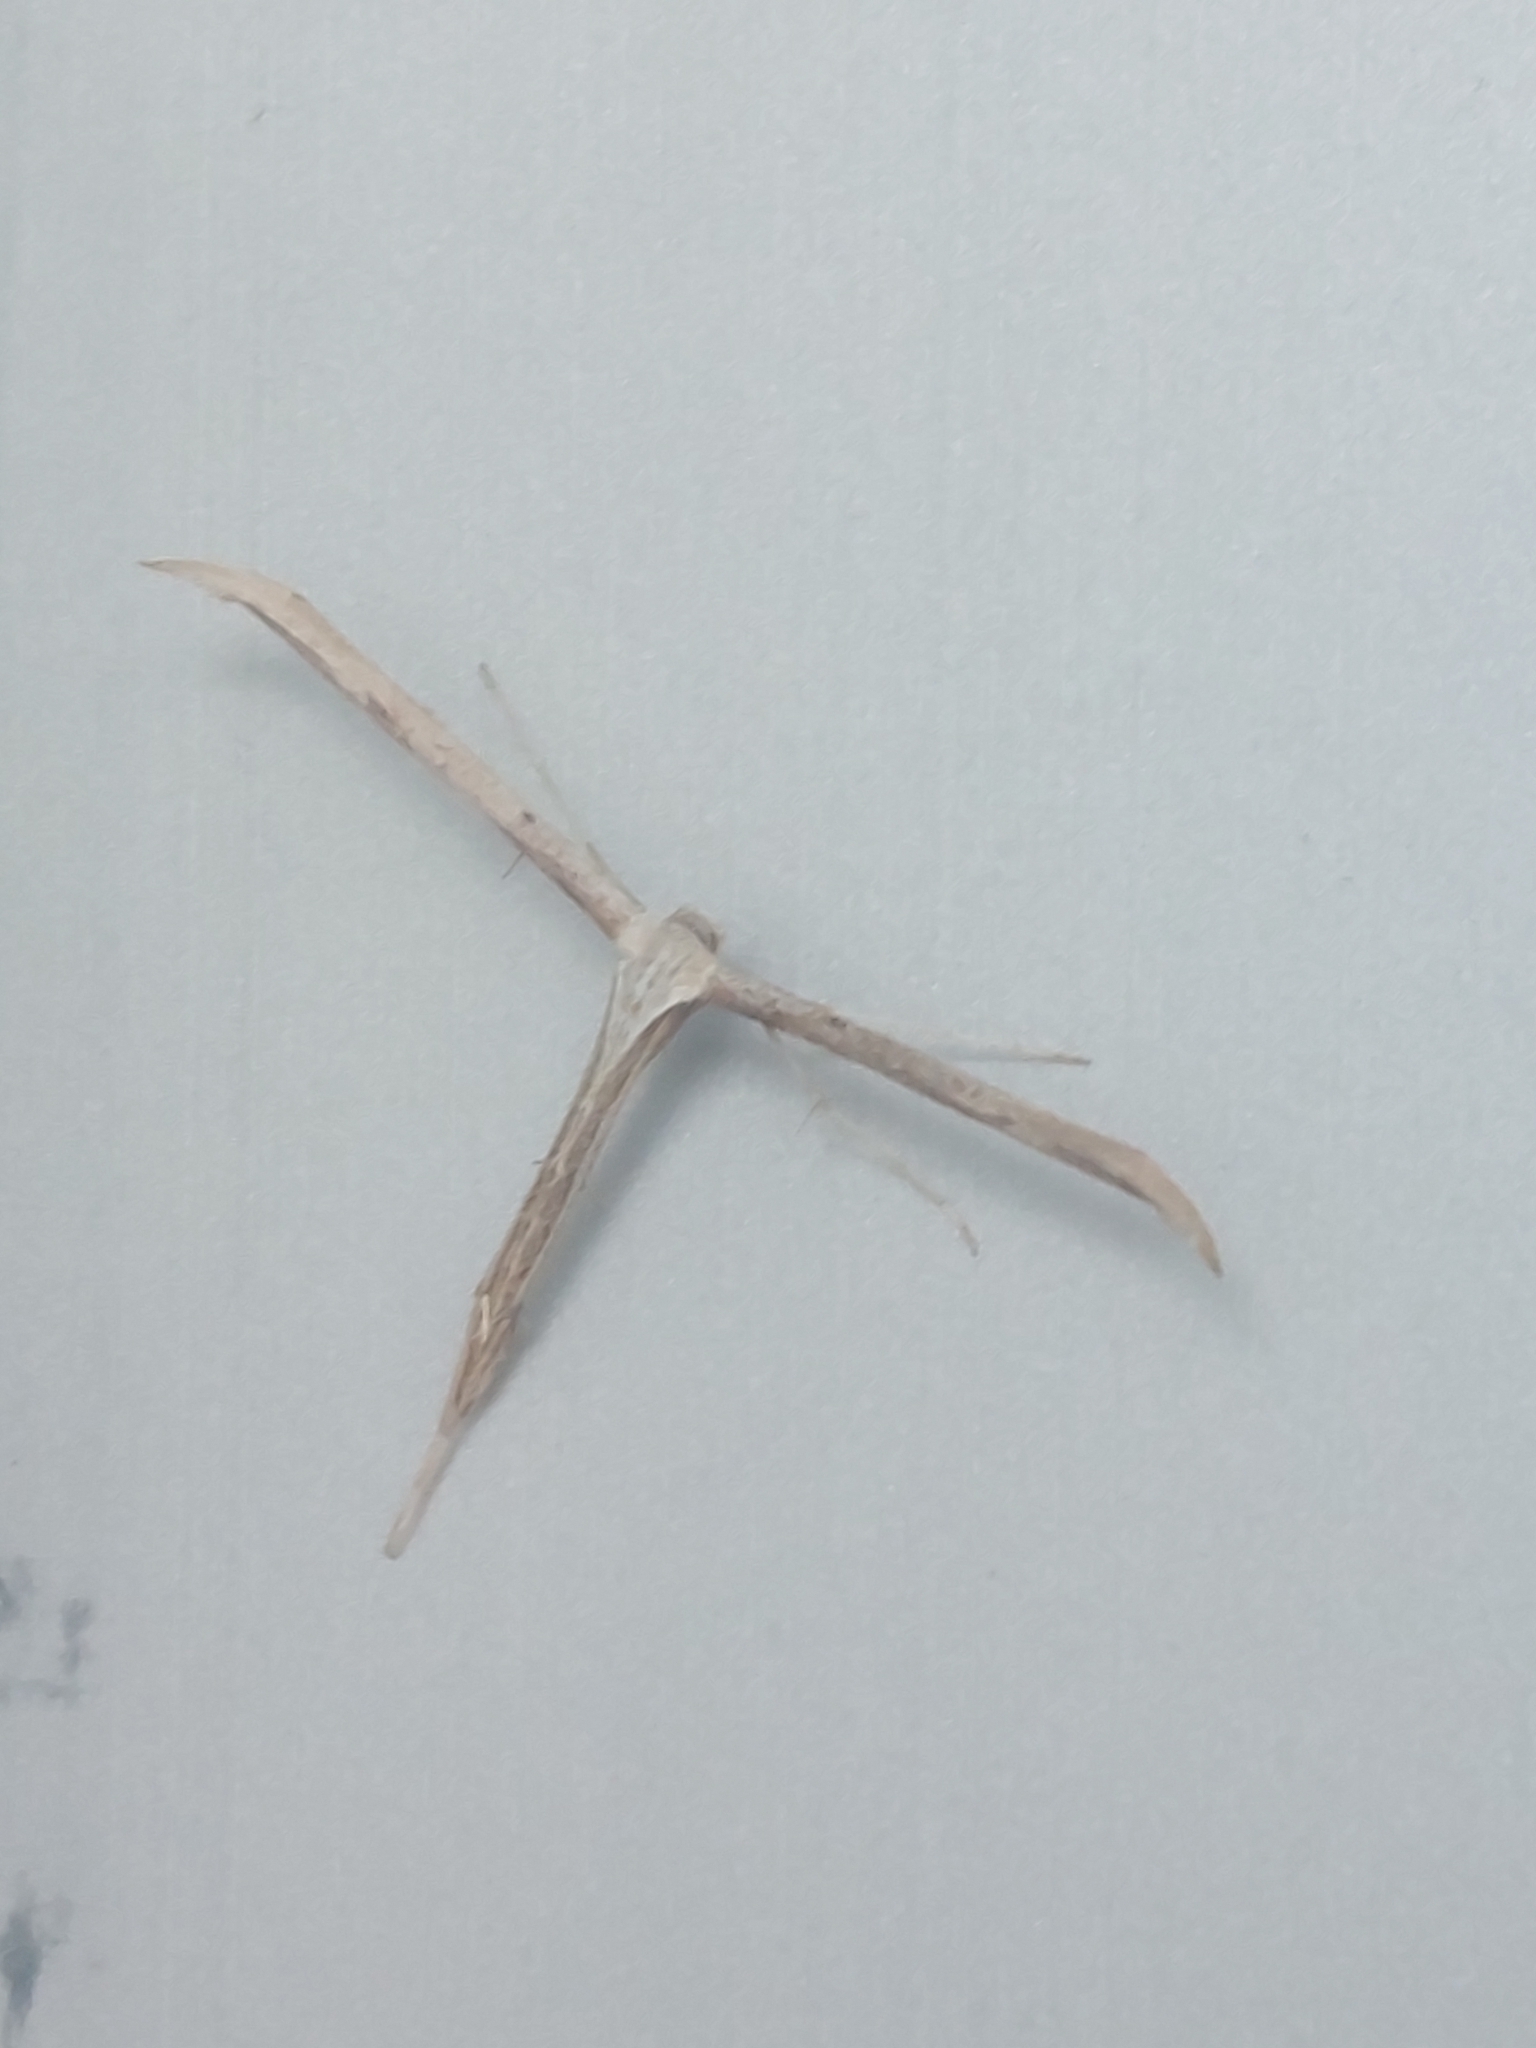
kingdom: Animalia
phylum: Arthropoda
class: Insecta
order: Lepidoptera
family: Pterophoridae
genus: Emmelina
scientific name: Emmelina monodactyla
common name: Common plume
